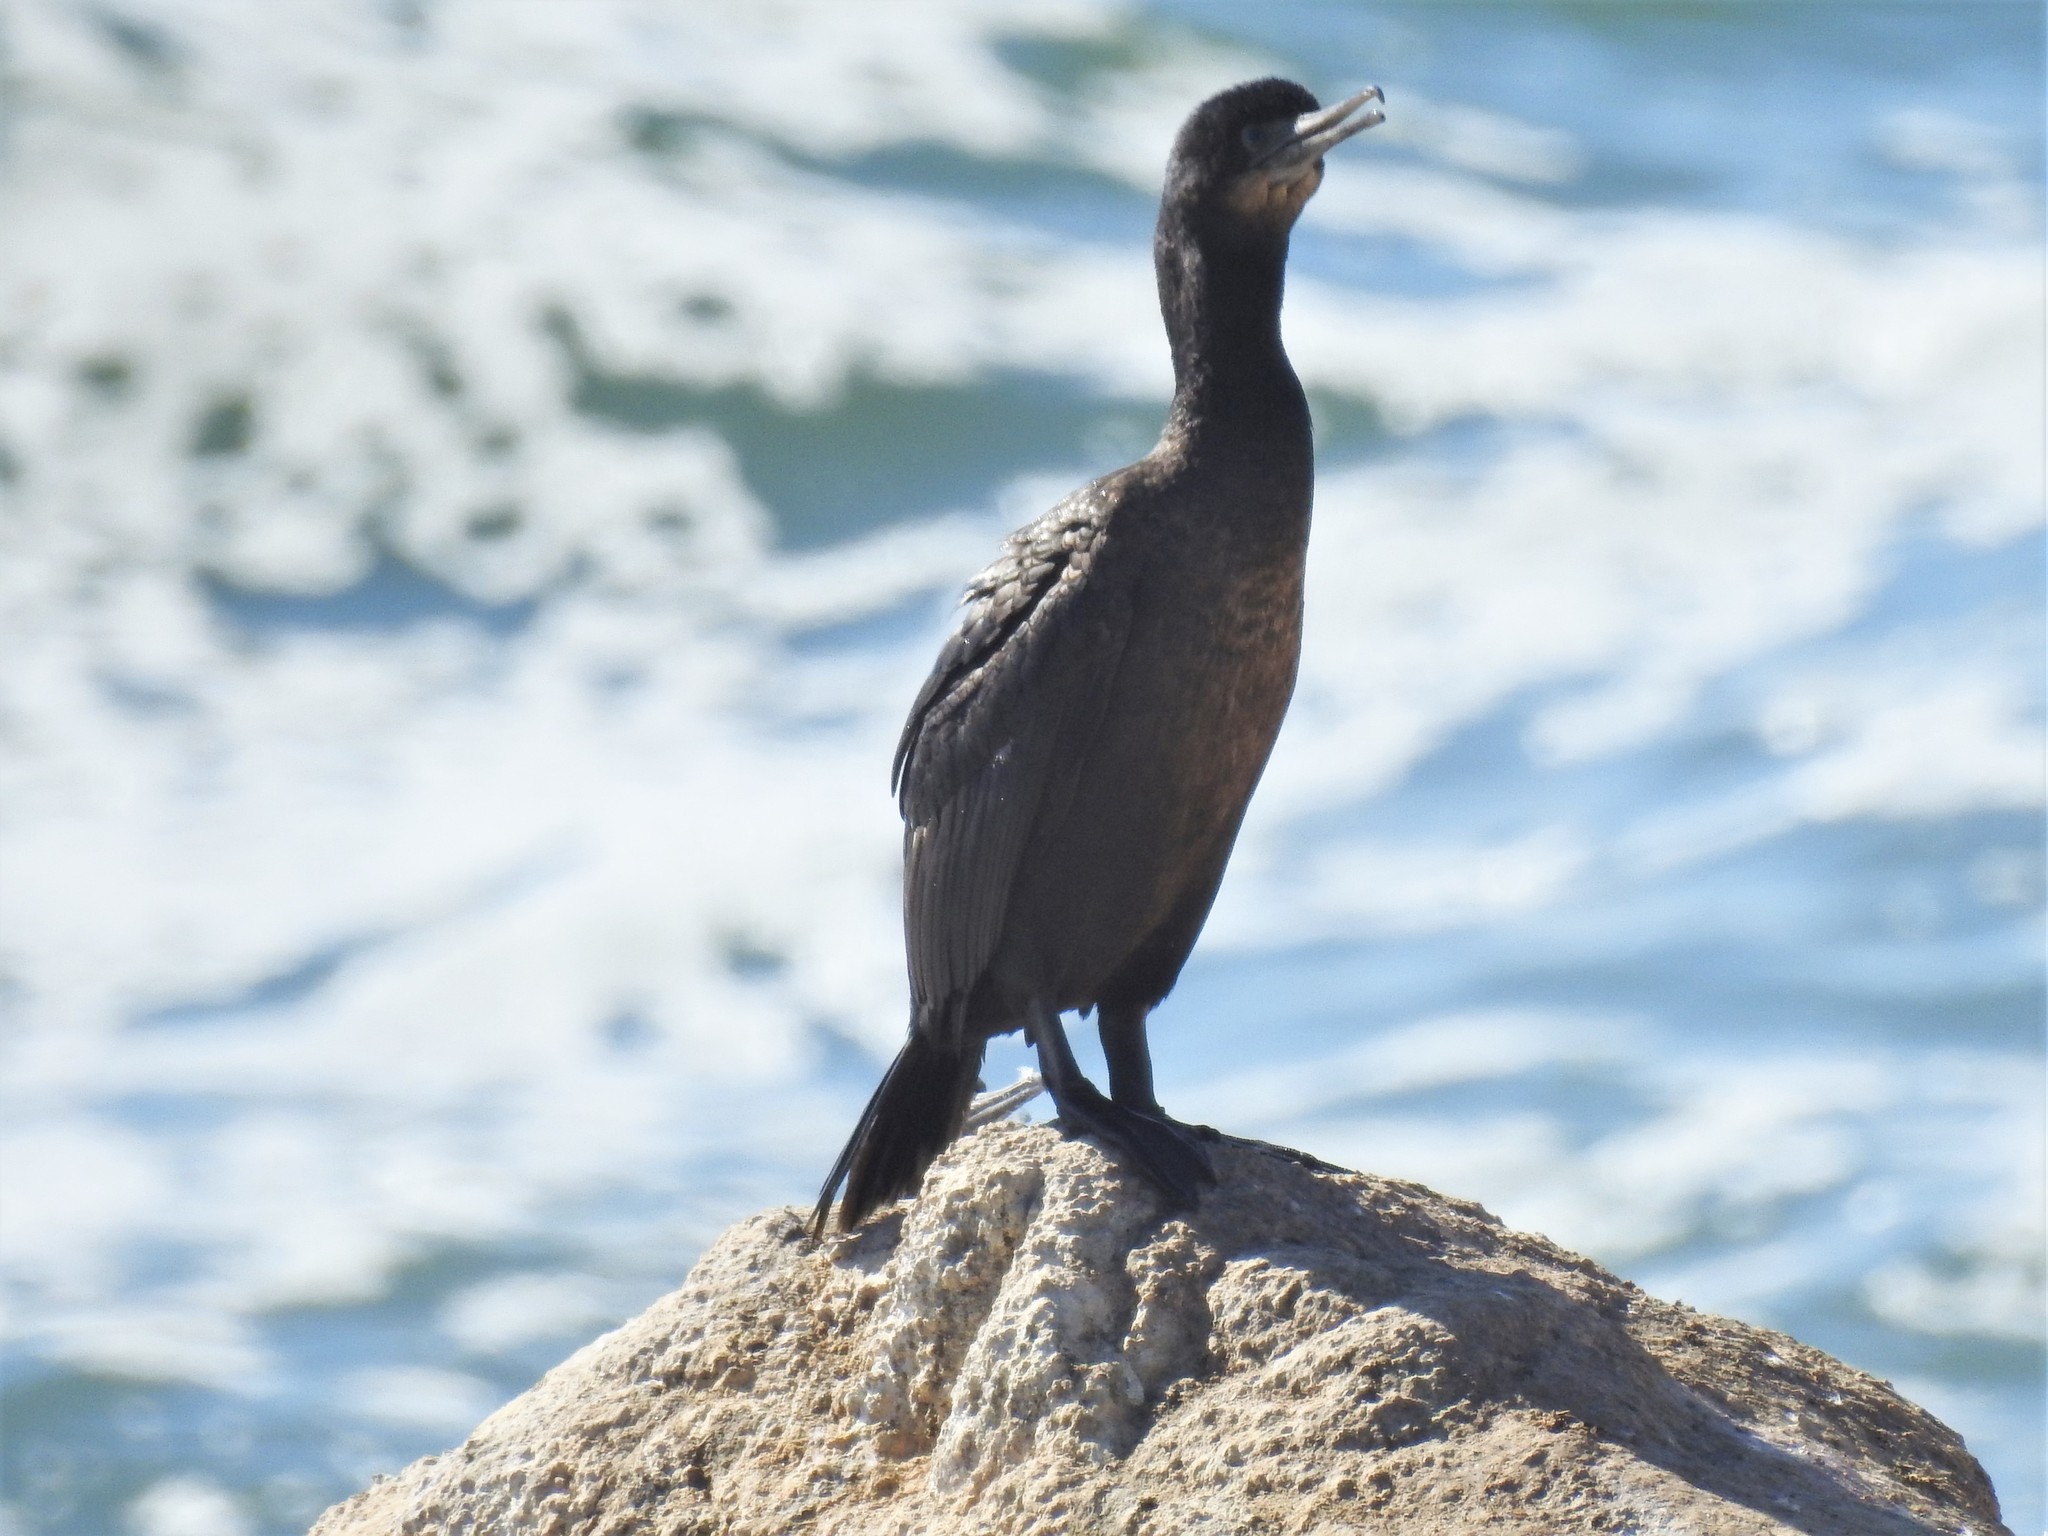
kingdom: Animalia
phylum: Chordata
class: Aves
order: Suliformes
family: Phalacrocoracidae
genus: Urile
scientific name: Urile penicillatus
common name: Brandt's cormorant
